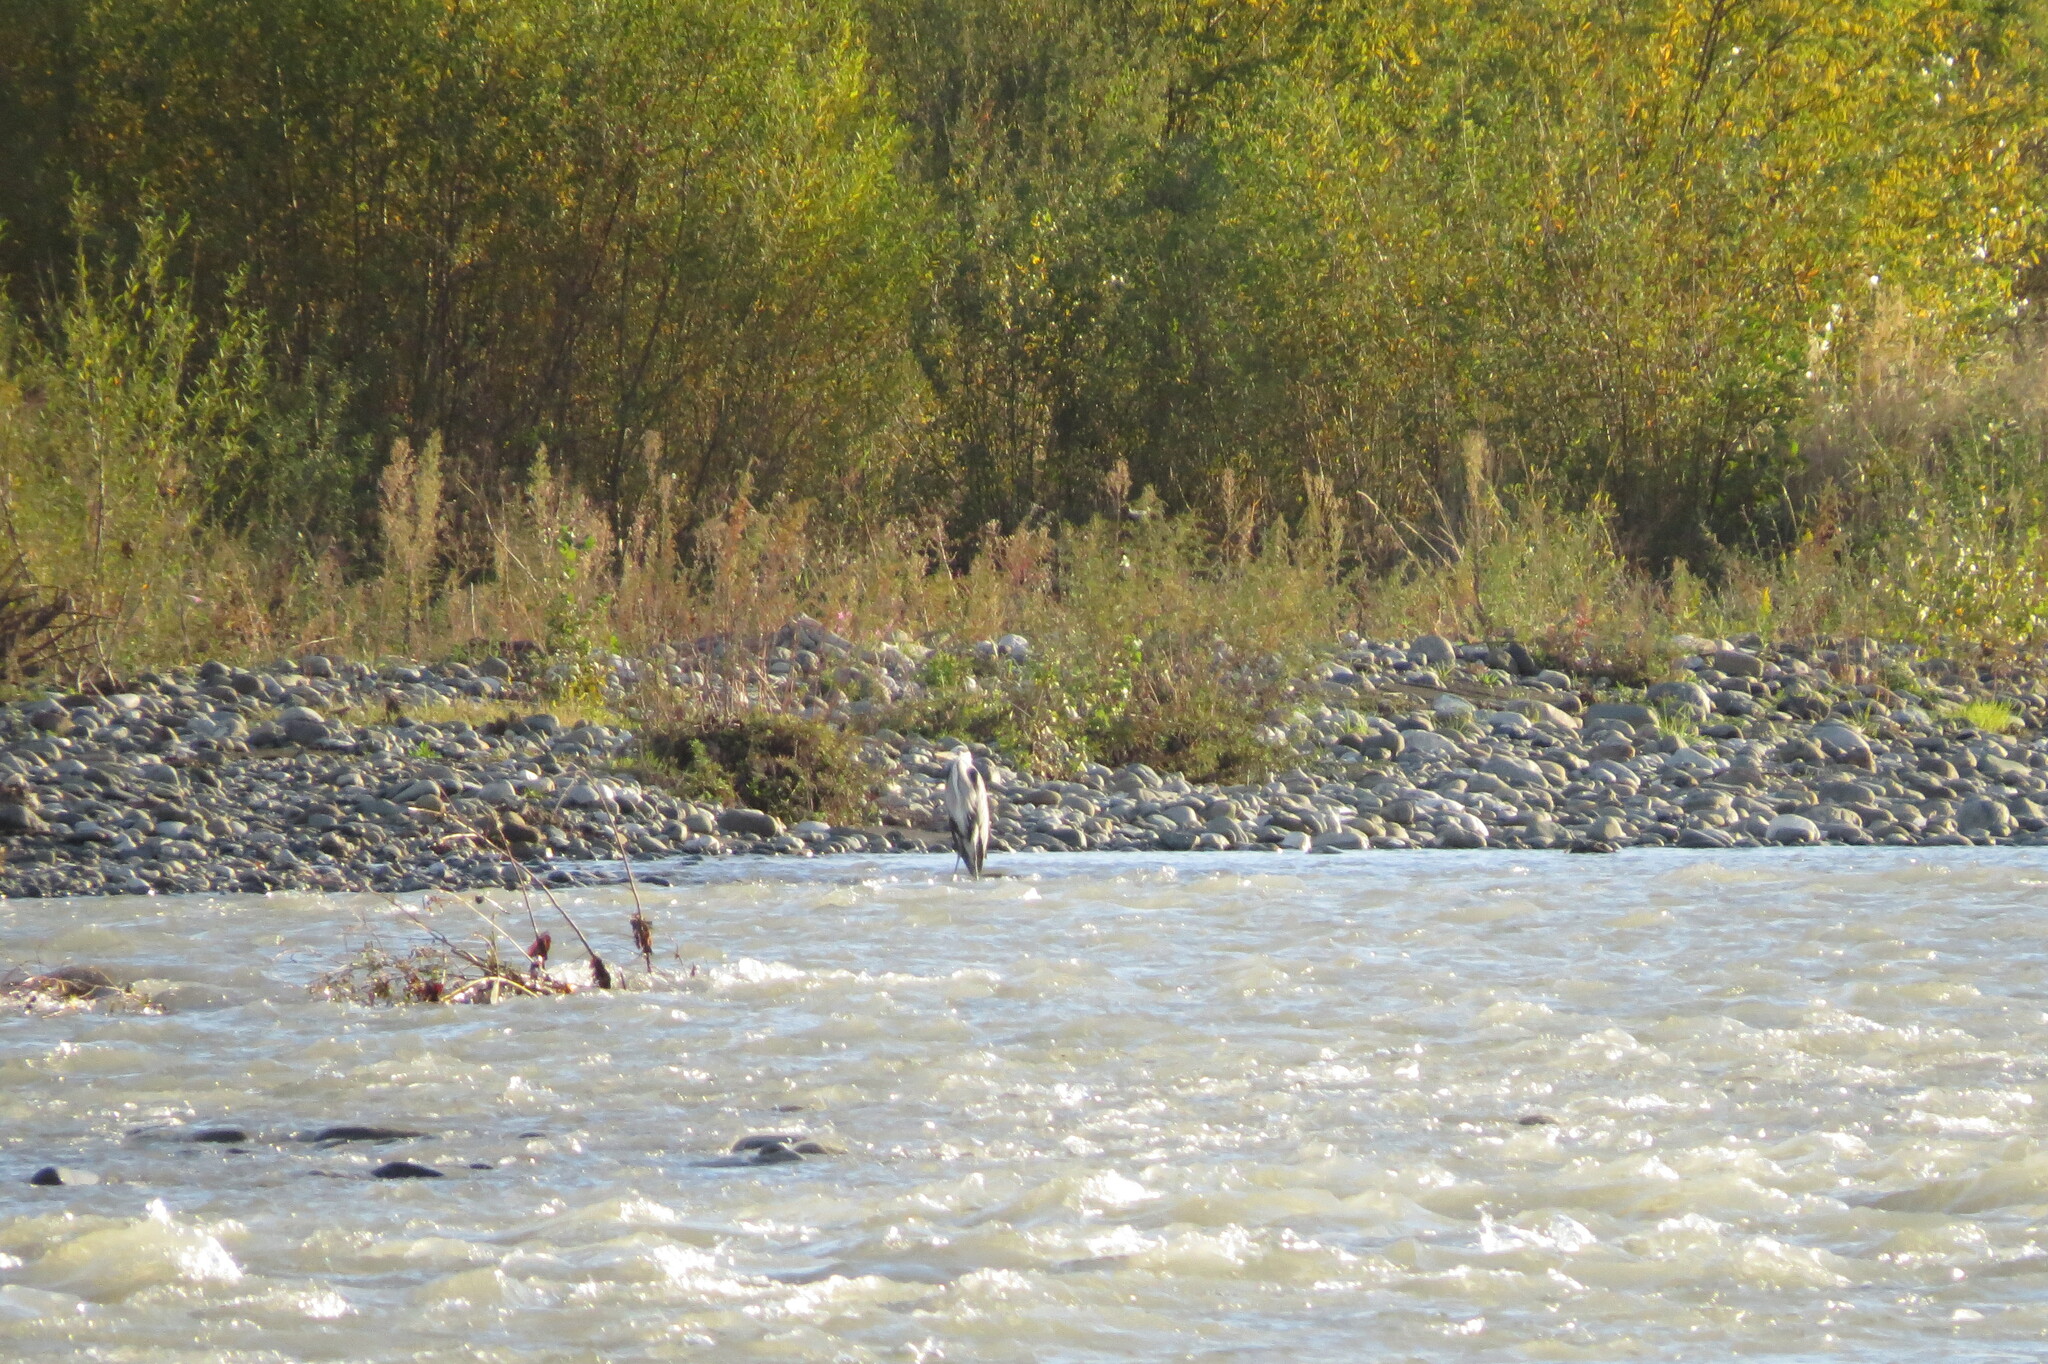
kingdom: Animalia
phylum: Chordata
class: Aves
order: Pelecaniformes
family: Ardeidae
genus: Ardea
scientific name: Ardea cinerea
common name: Grey heron
